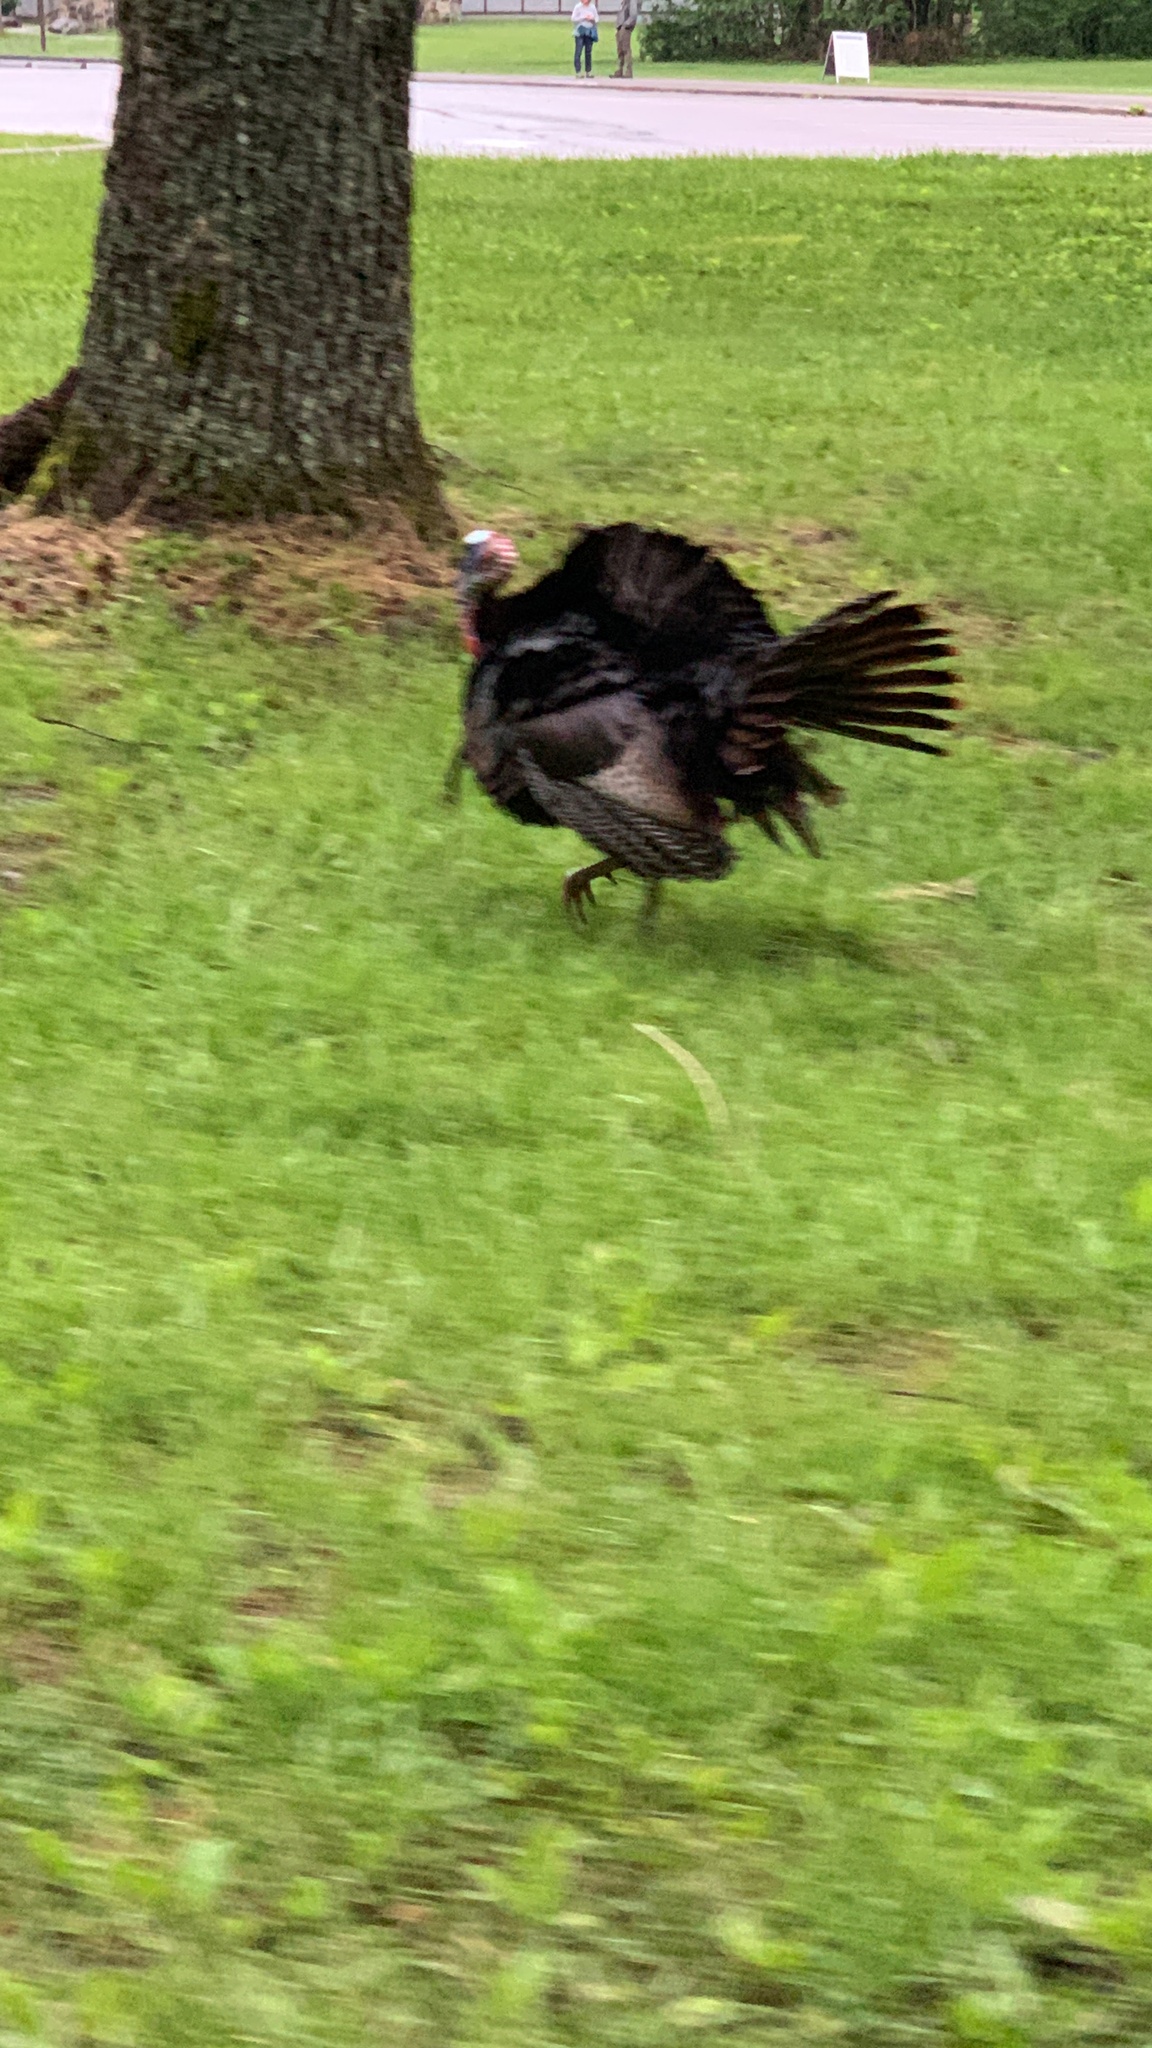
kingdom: Animalia
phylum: Chordata
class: Aves
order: Galliformes
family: Phasianidae
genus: Meleagris
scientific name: Meleagris gallopavo
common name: Wild turkey
